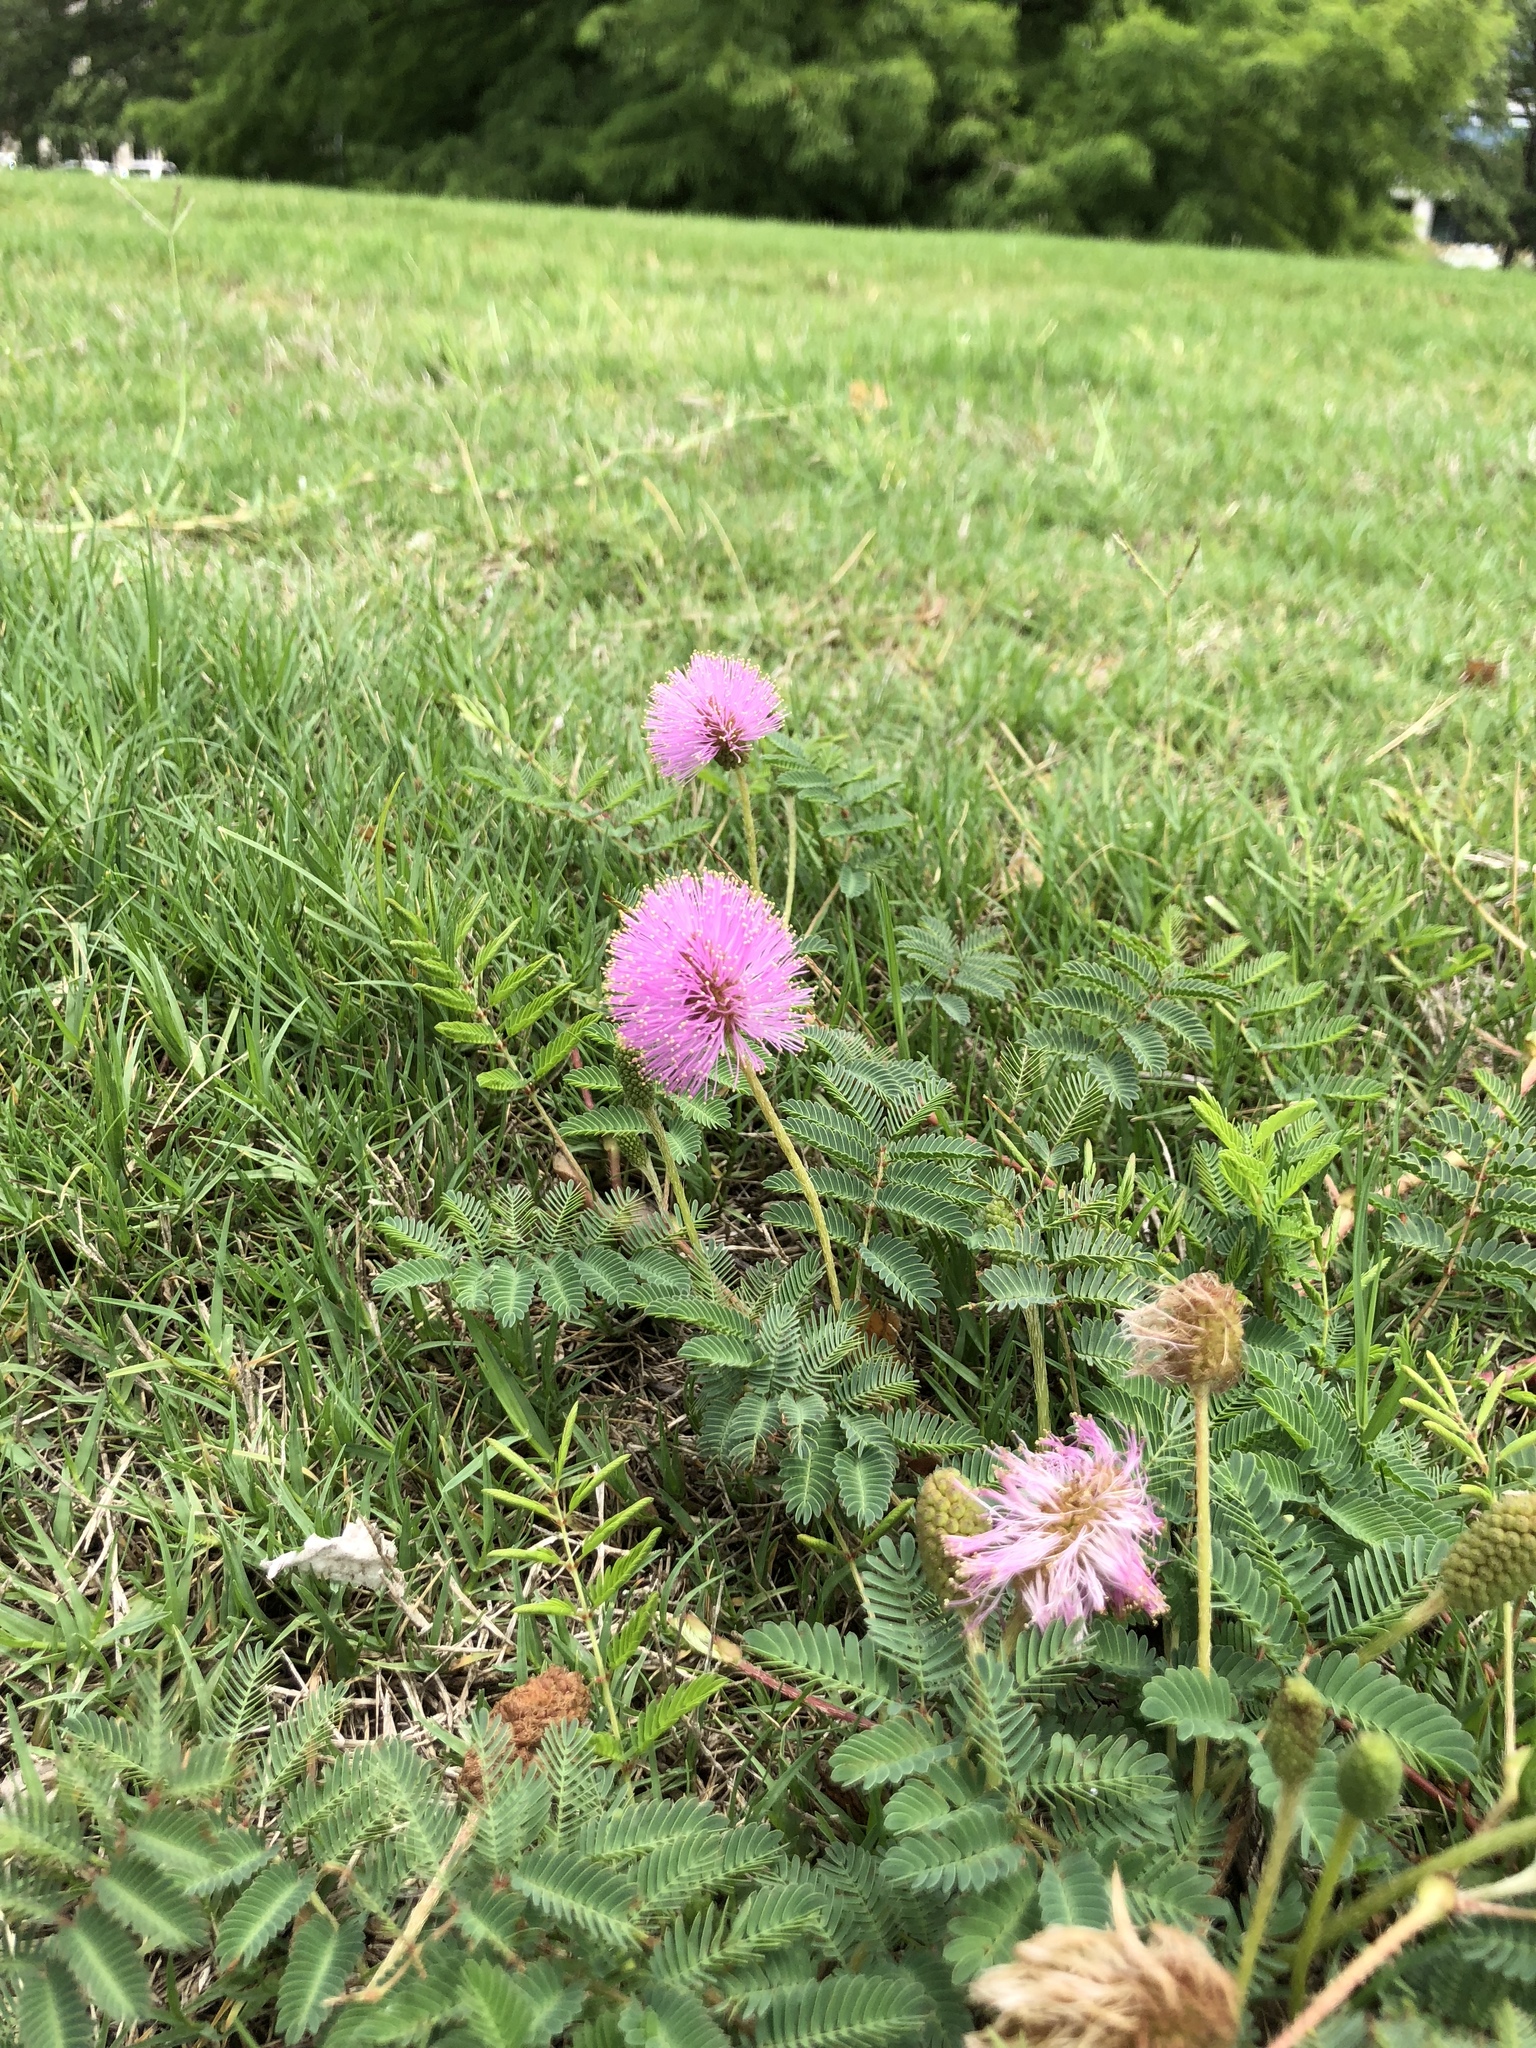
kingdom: Plantae
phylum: Tracheophyta
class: Magnoliopsida
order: Fabales
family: Fabaceae
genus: Mimosa
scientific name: Mimosa strigillosa
